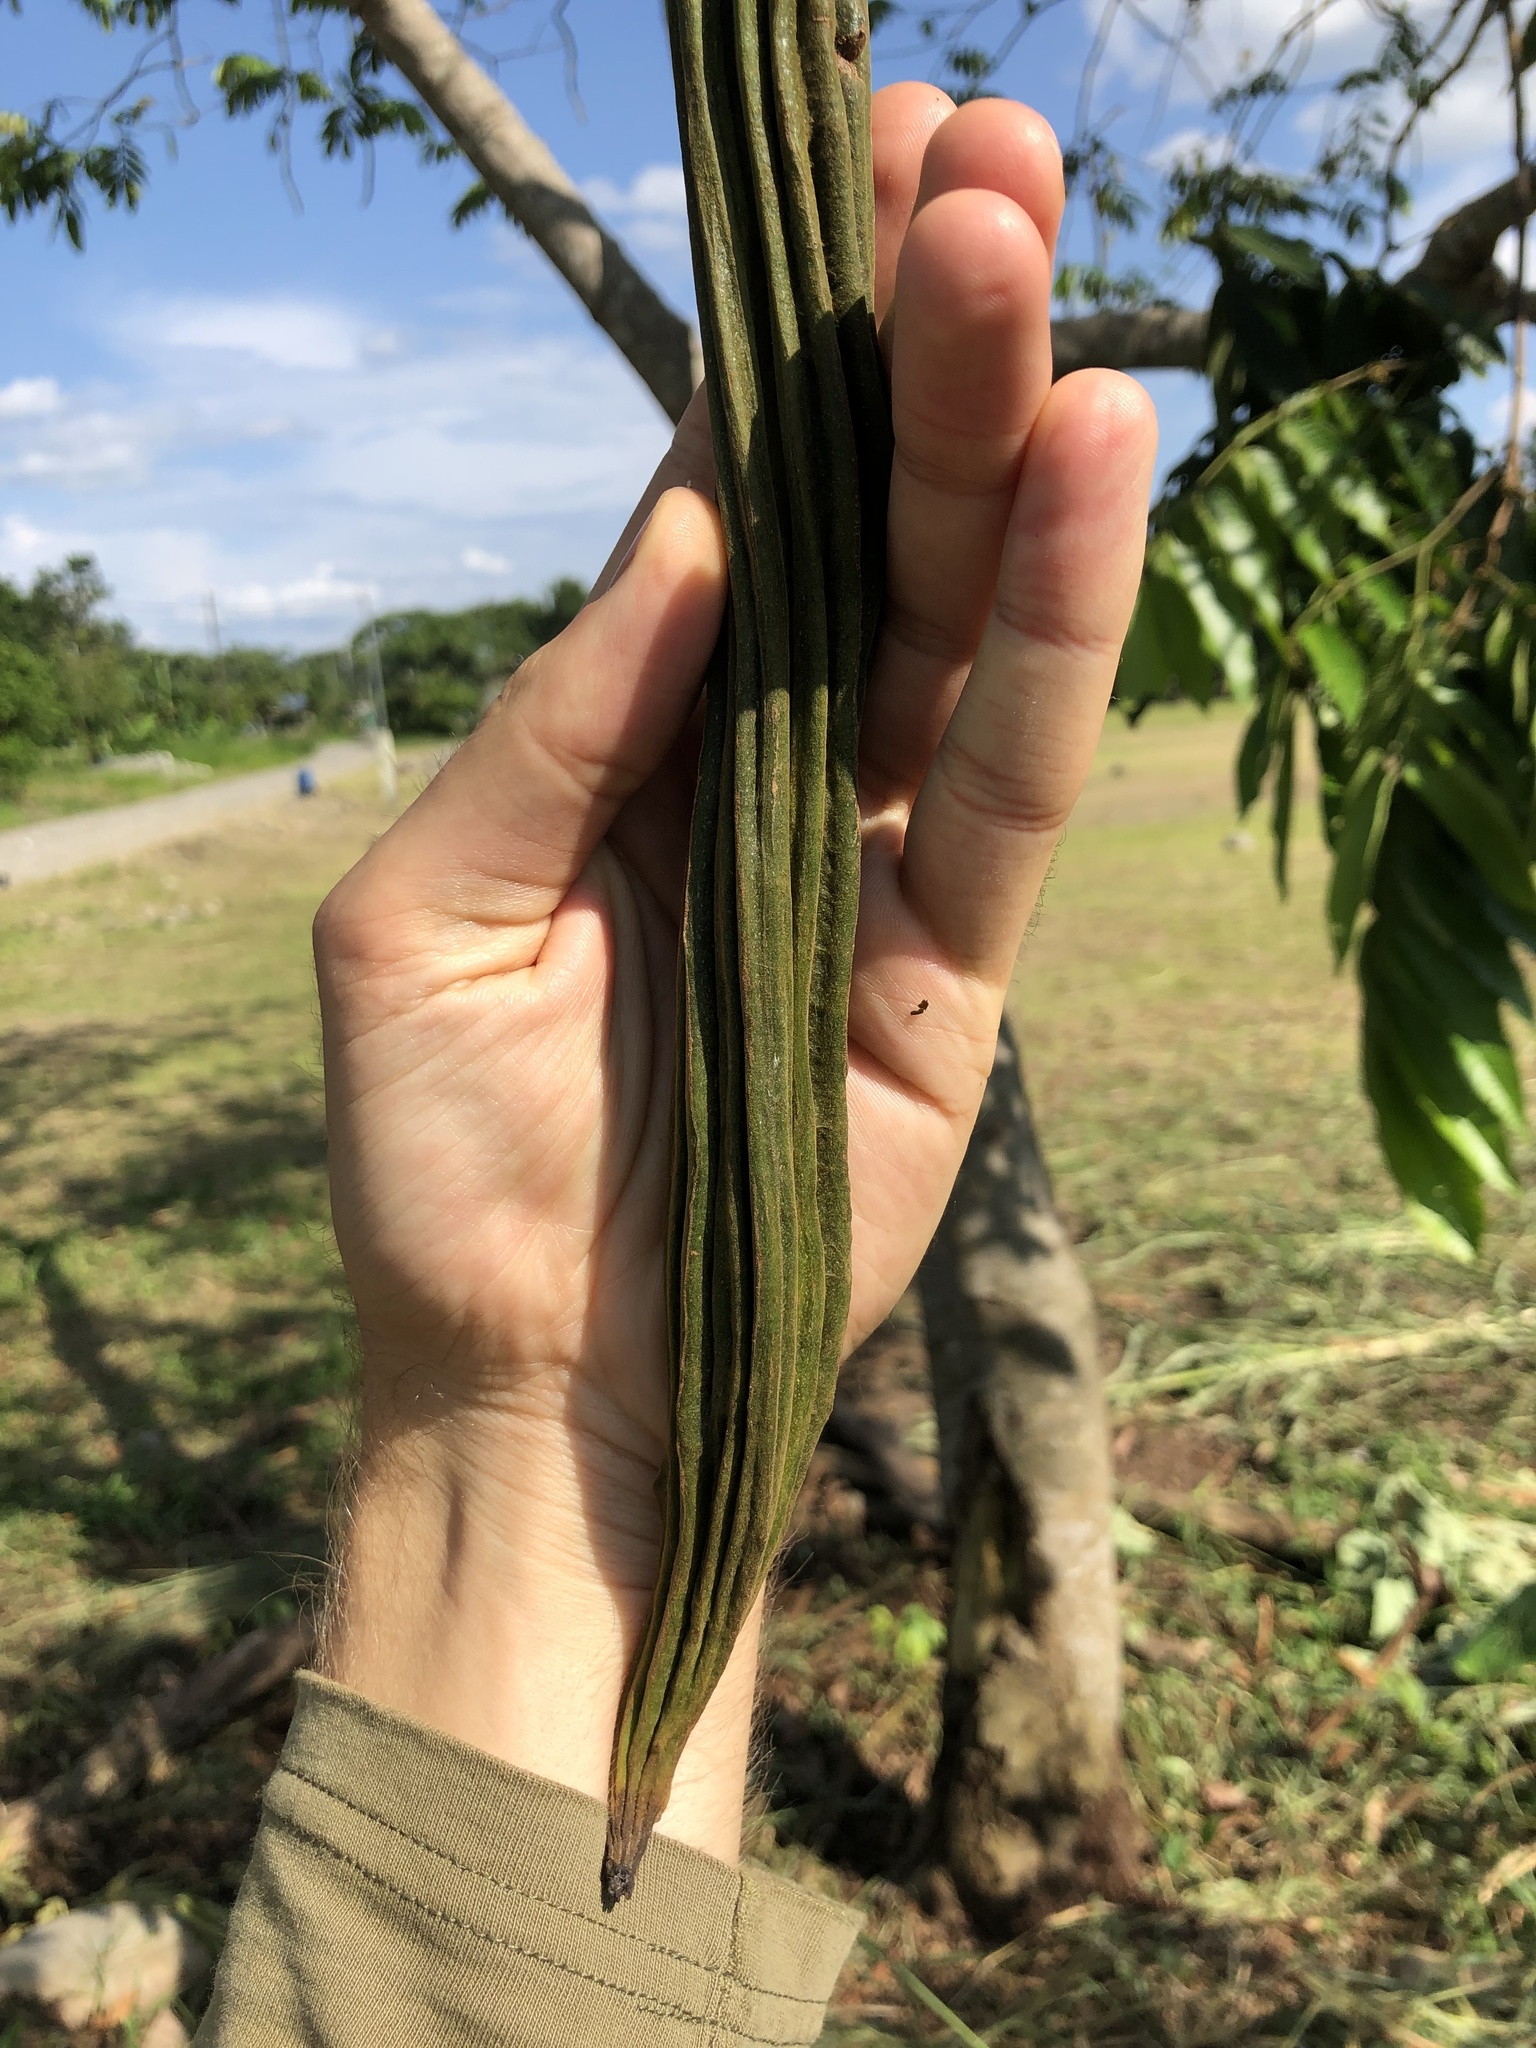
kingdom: Plantae
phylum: Tracheophyta
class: Magnoliopsida
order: Fabales
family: Fabaceae
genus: Inga
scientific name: Inga edulis
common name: Ice cream bean
